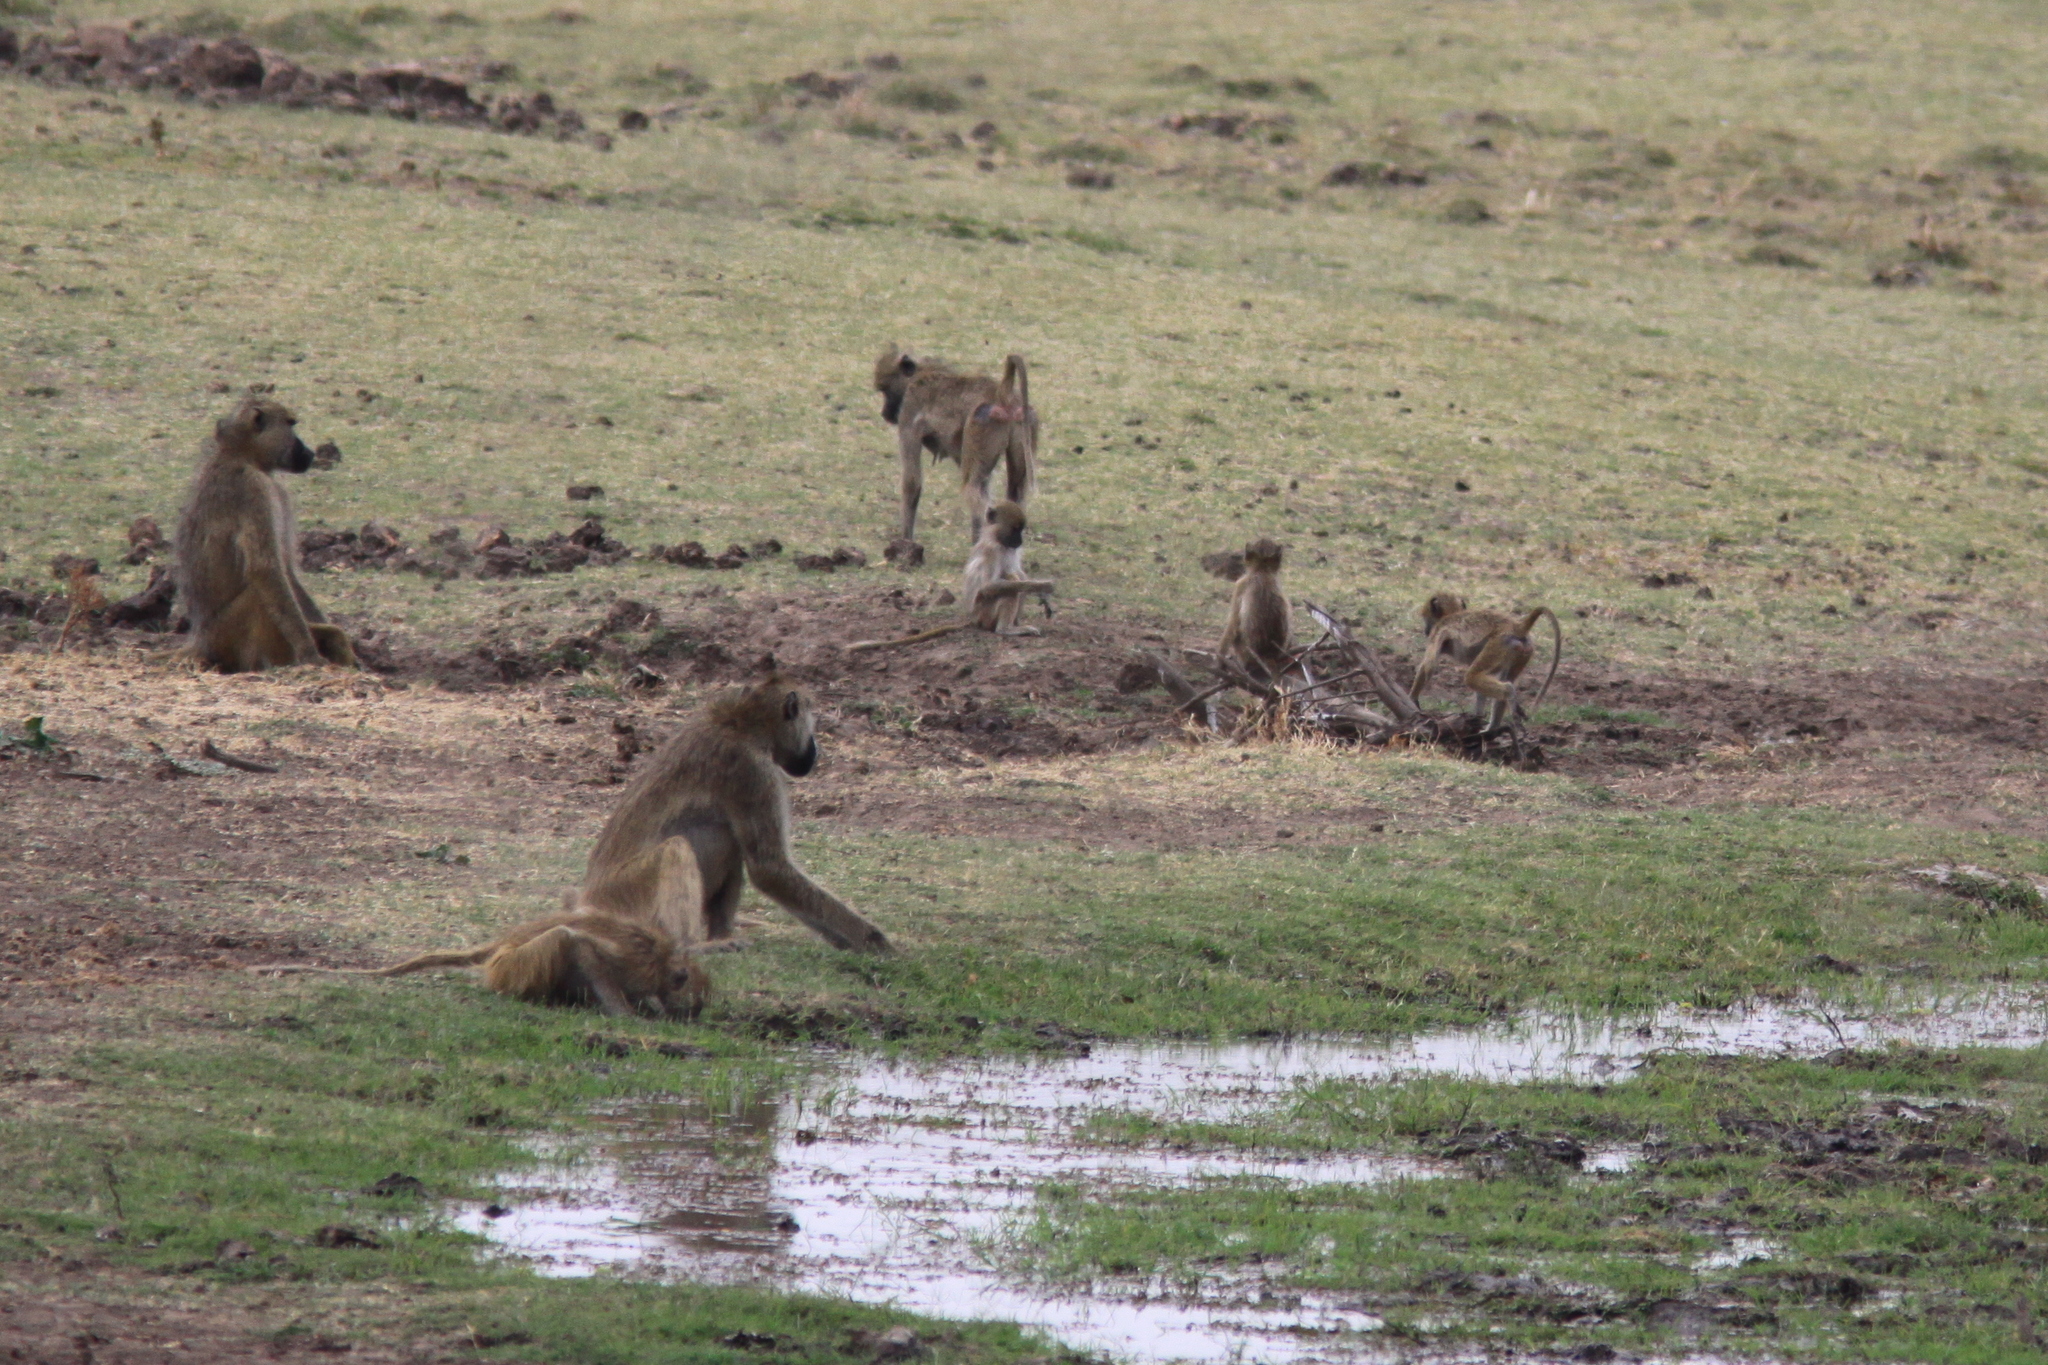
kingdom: Animalia
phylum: Chordata
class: Mammalia
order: Primates
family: Cercopithecidae
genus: Papio
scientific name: Papio cynocephalus
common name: Yellow baboon
